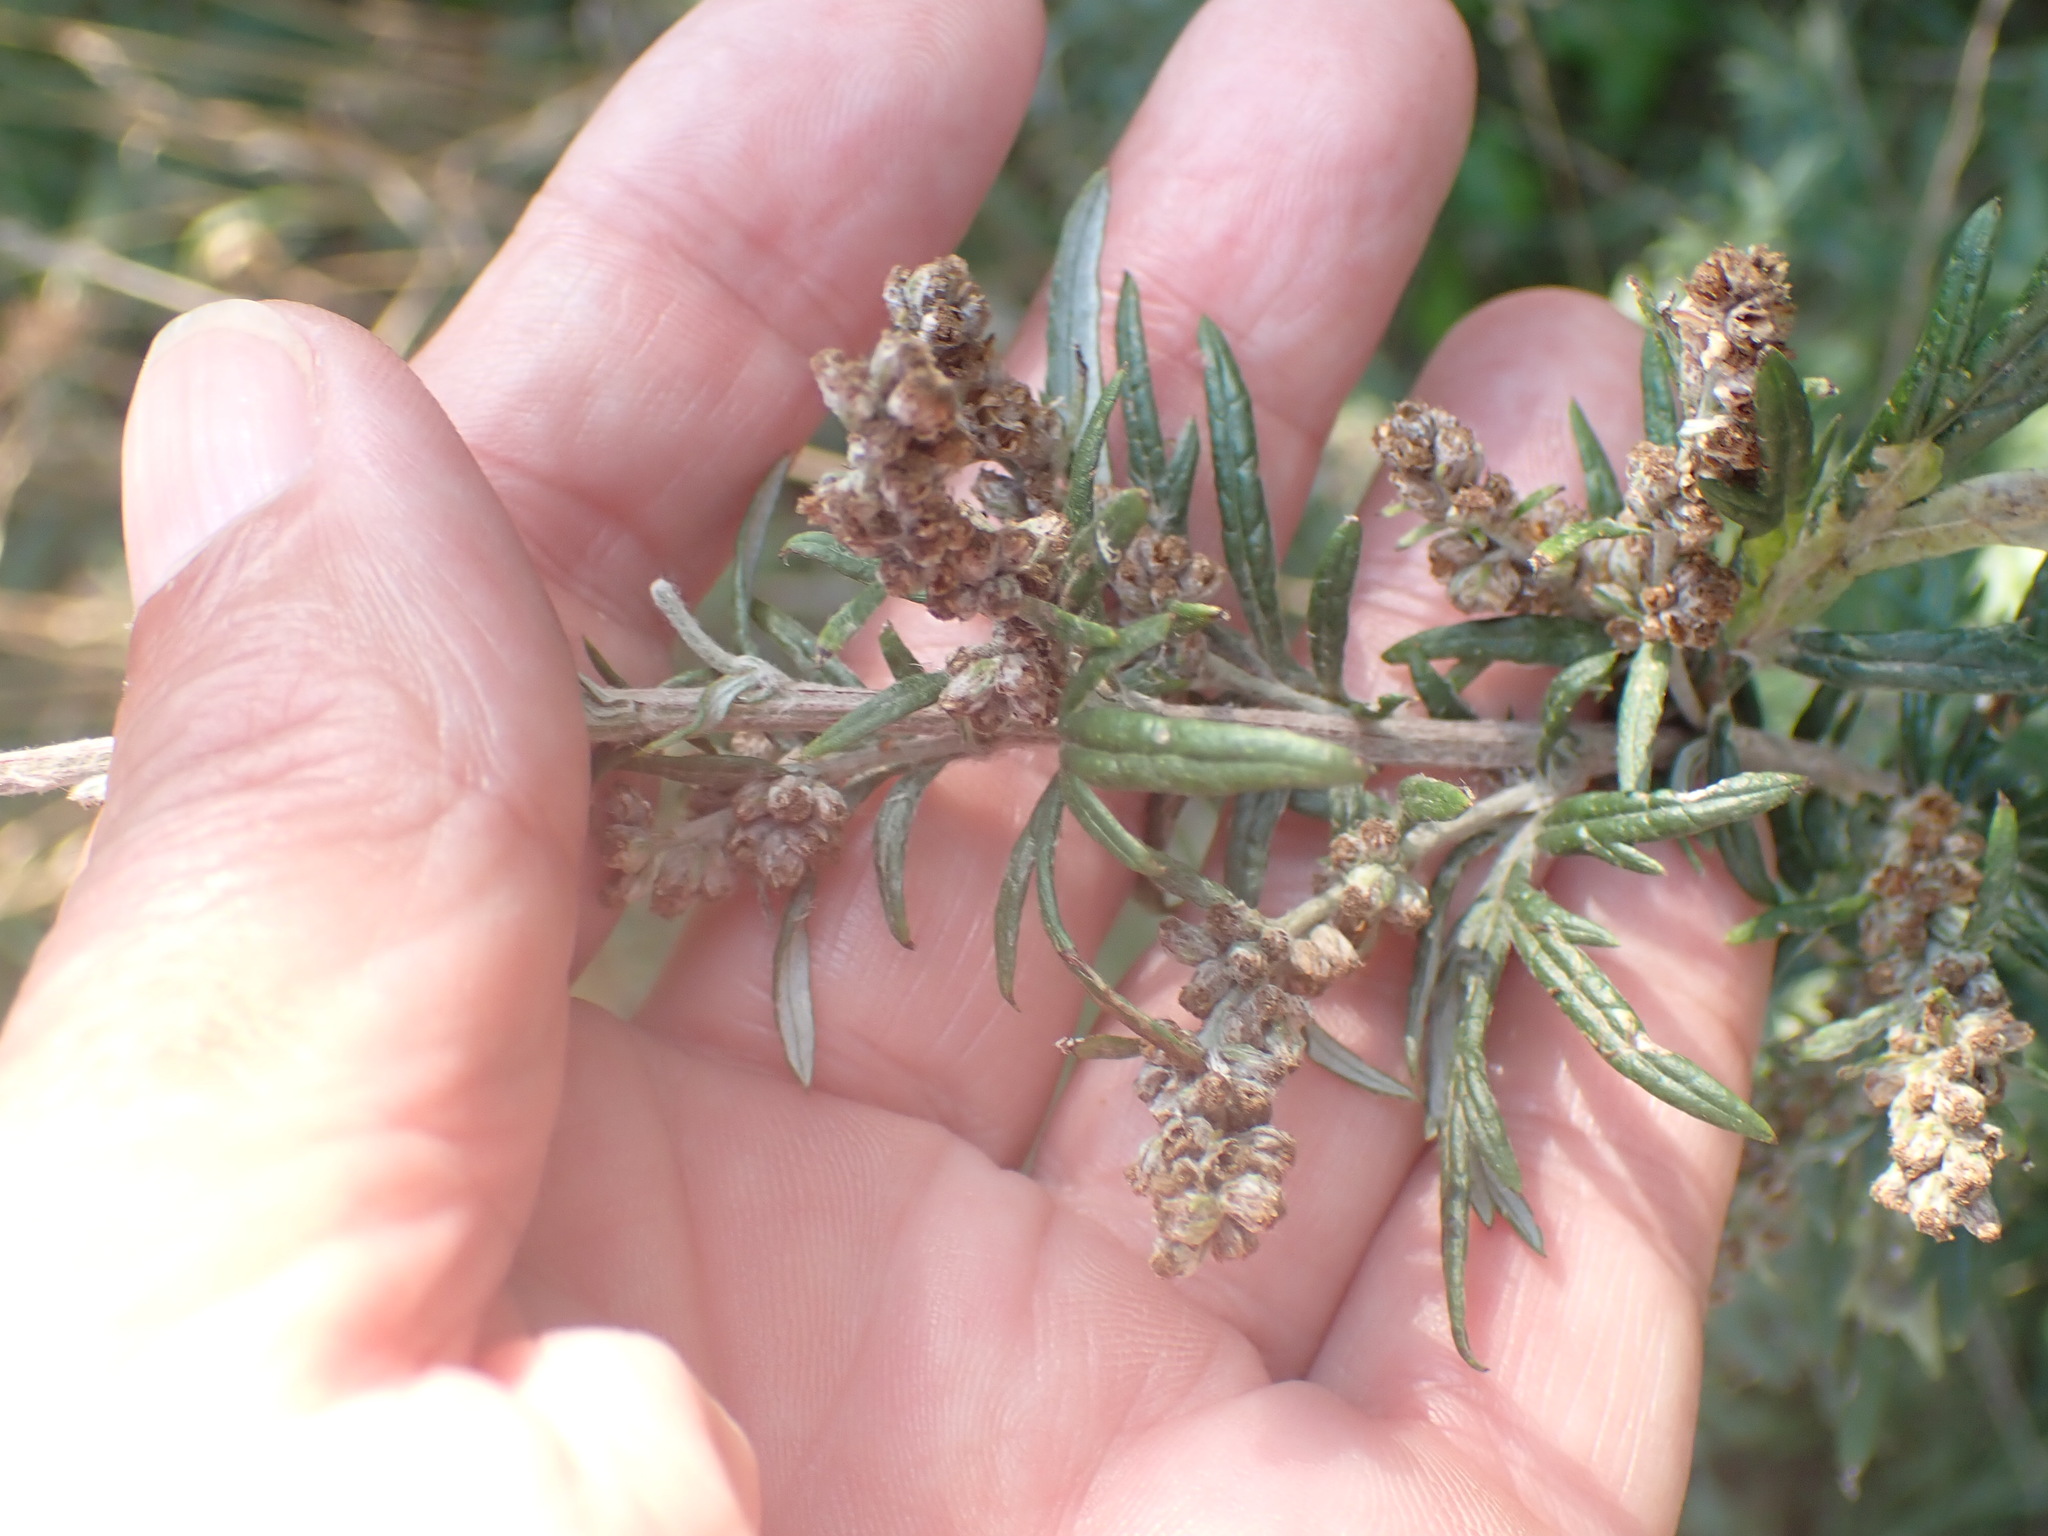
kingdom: Plantae
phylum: Tracheophyta
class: Magnoliopsida
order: Asterales
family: Asteraceae
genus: Artemisia
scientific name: Artemisia vulgaris
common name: Mugwort
